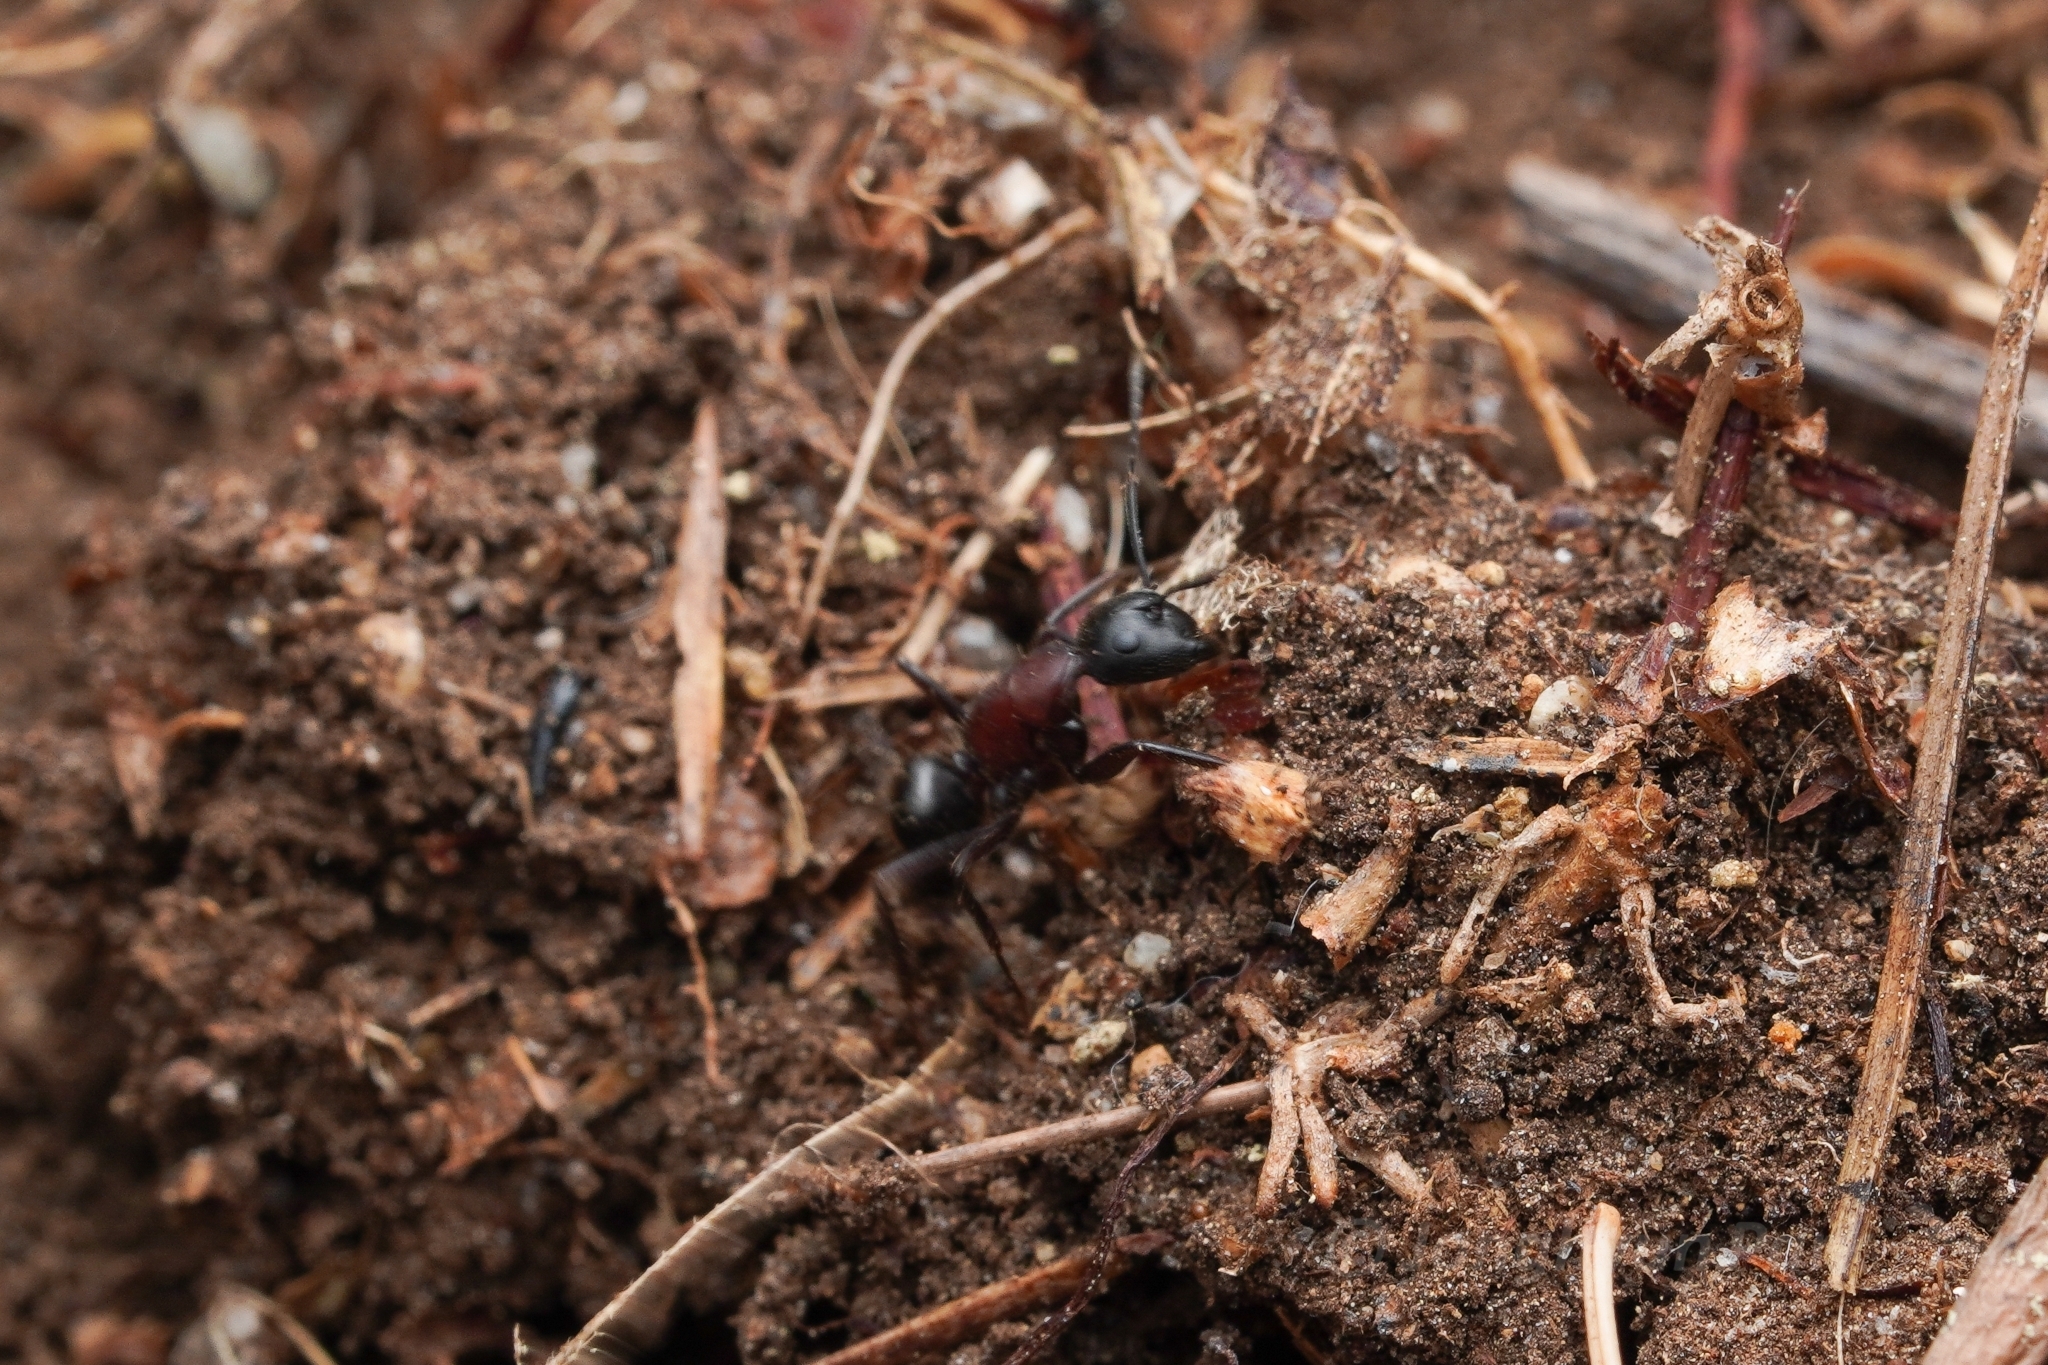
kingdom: Animalia
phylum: Arthropoda
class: Insecta
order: Hymenoptera
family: Formicidae
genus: Camponotus
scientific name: Camponotus novaeboracensis
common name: New york carpenter ant
